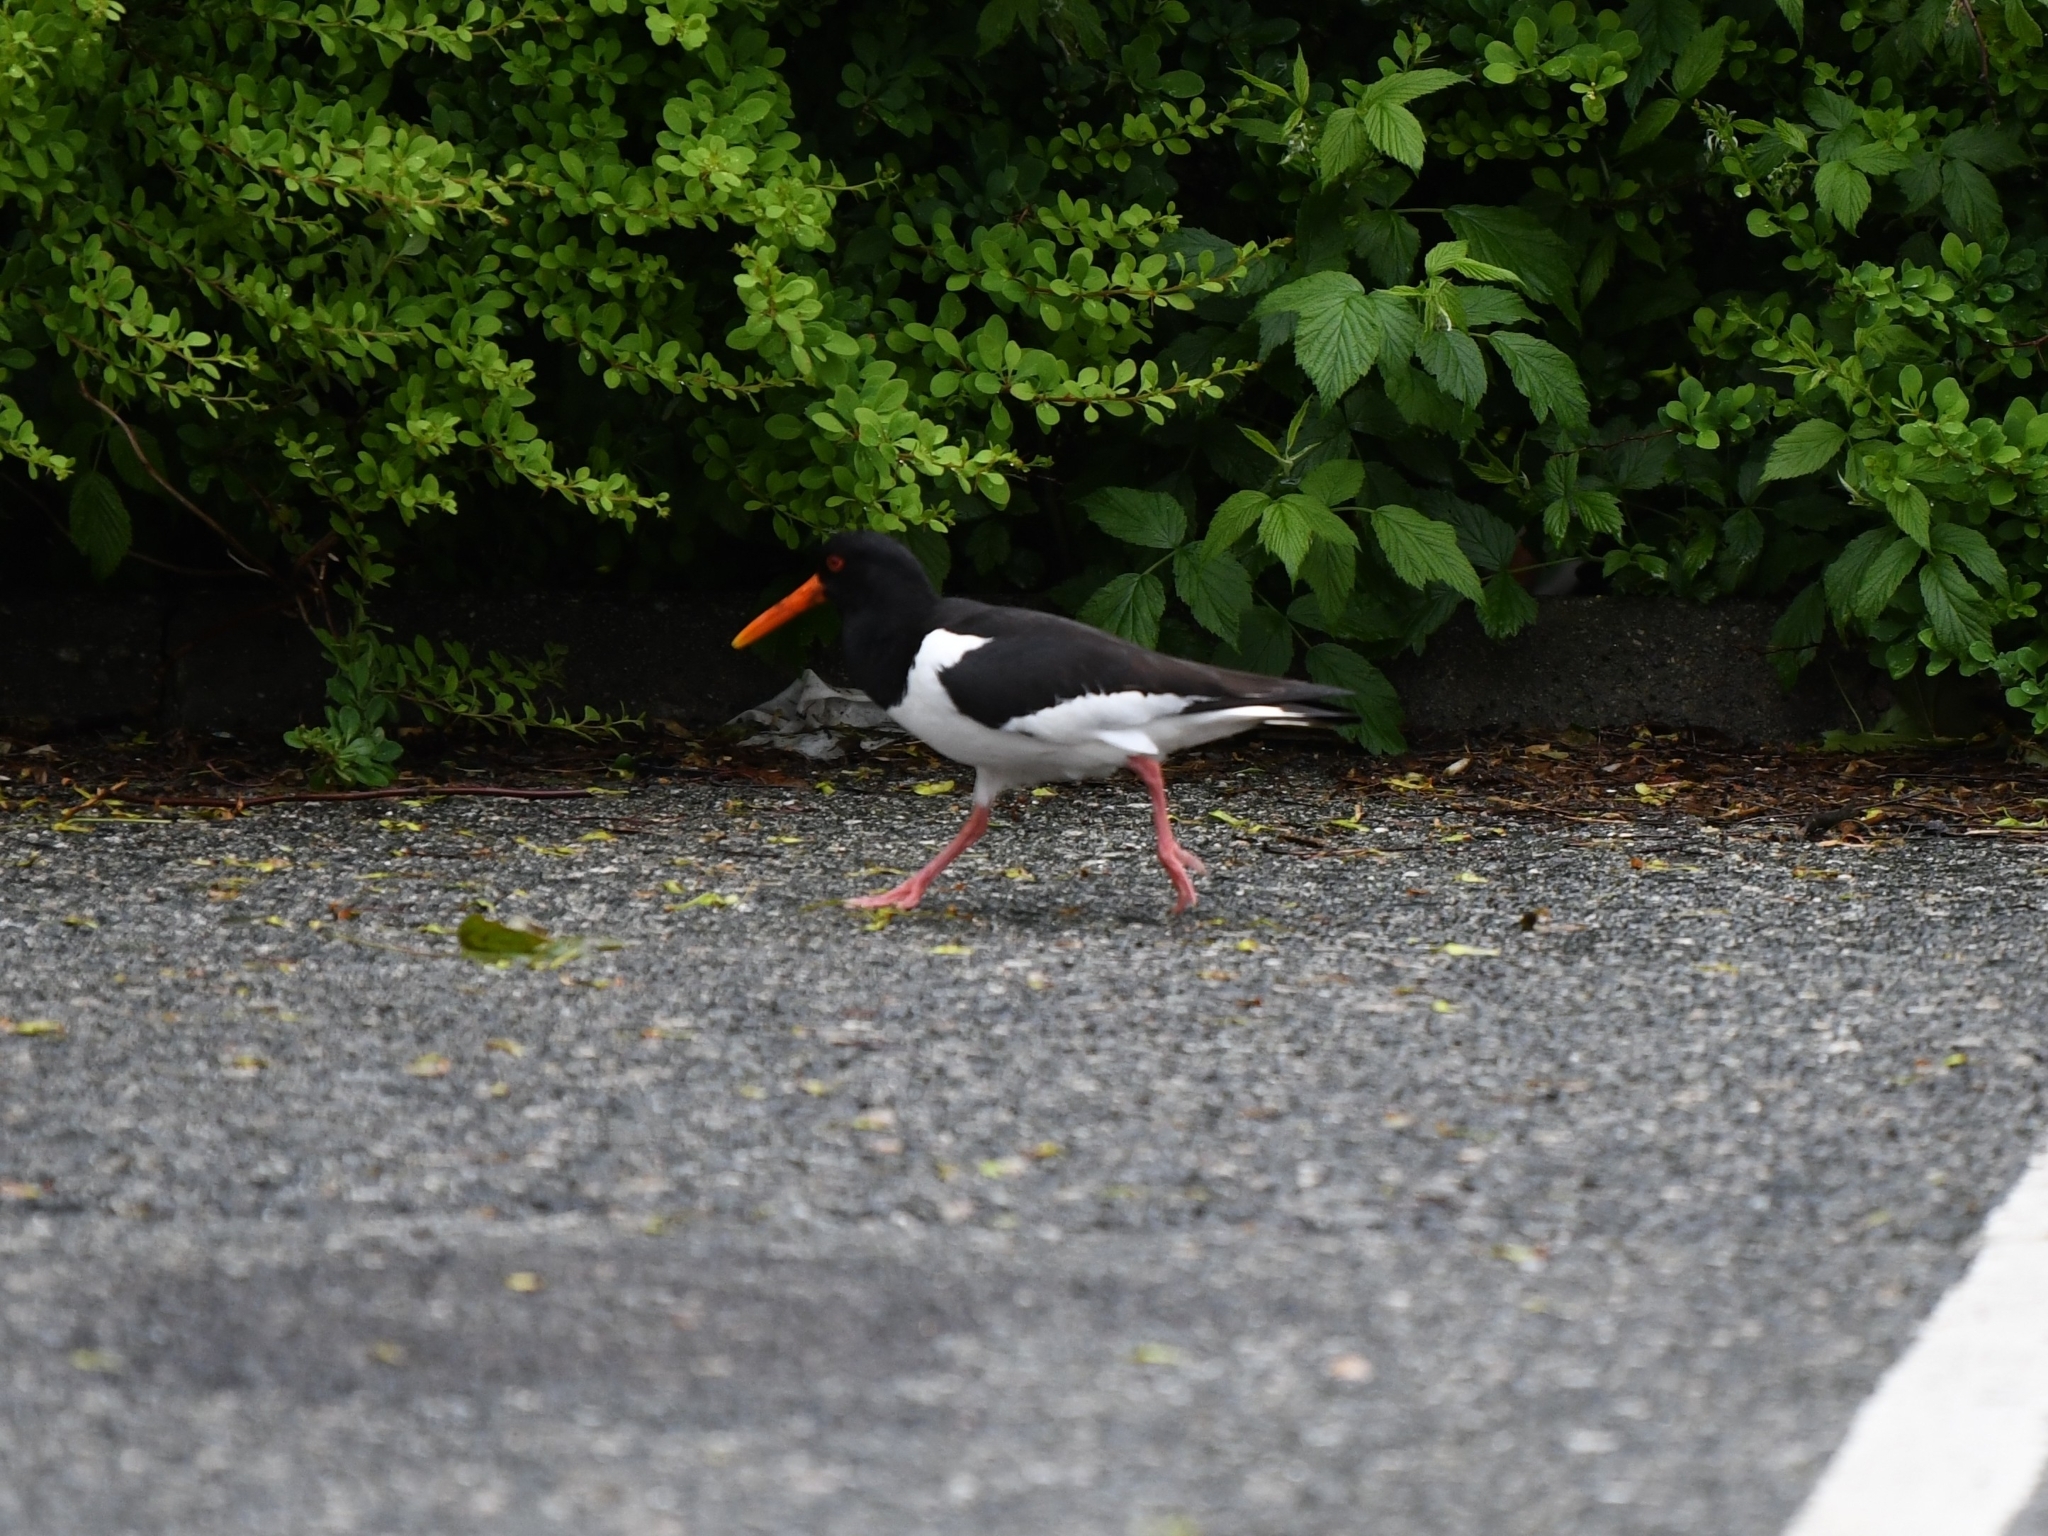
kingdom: Animalia
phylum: Chordata
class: Aves
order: Charadriiformes
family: Haematopodidae
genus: Haematopus
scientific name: Haematopus ostralegus
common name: Eurasian oystercatcher
